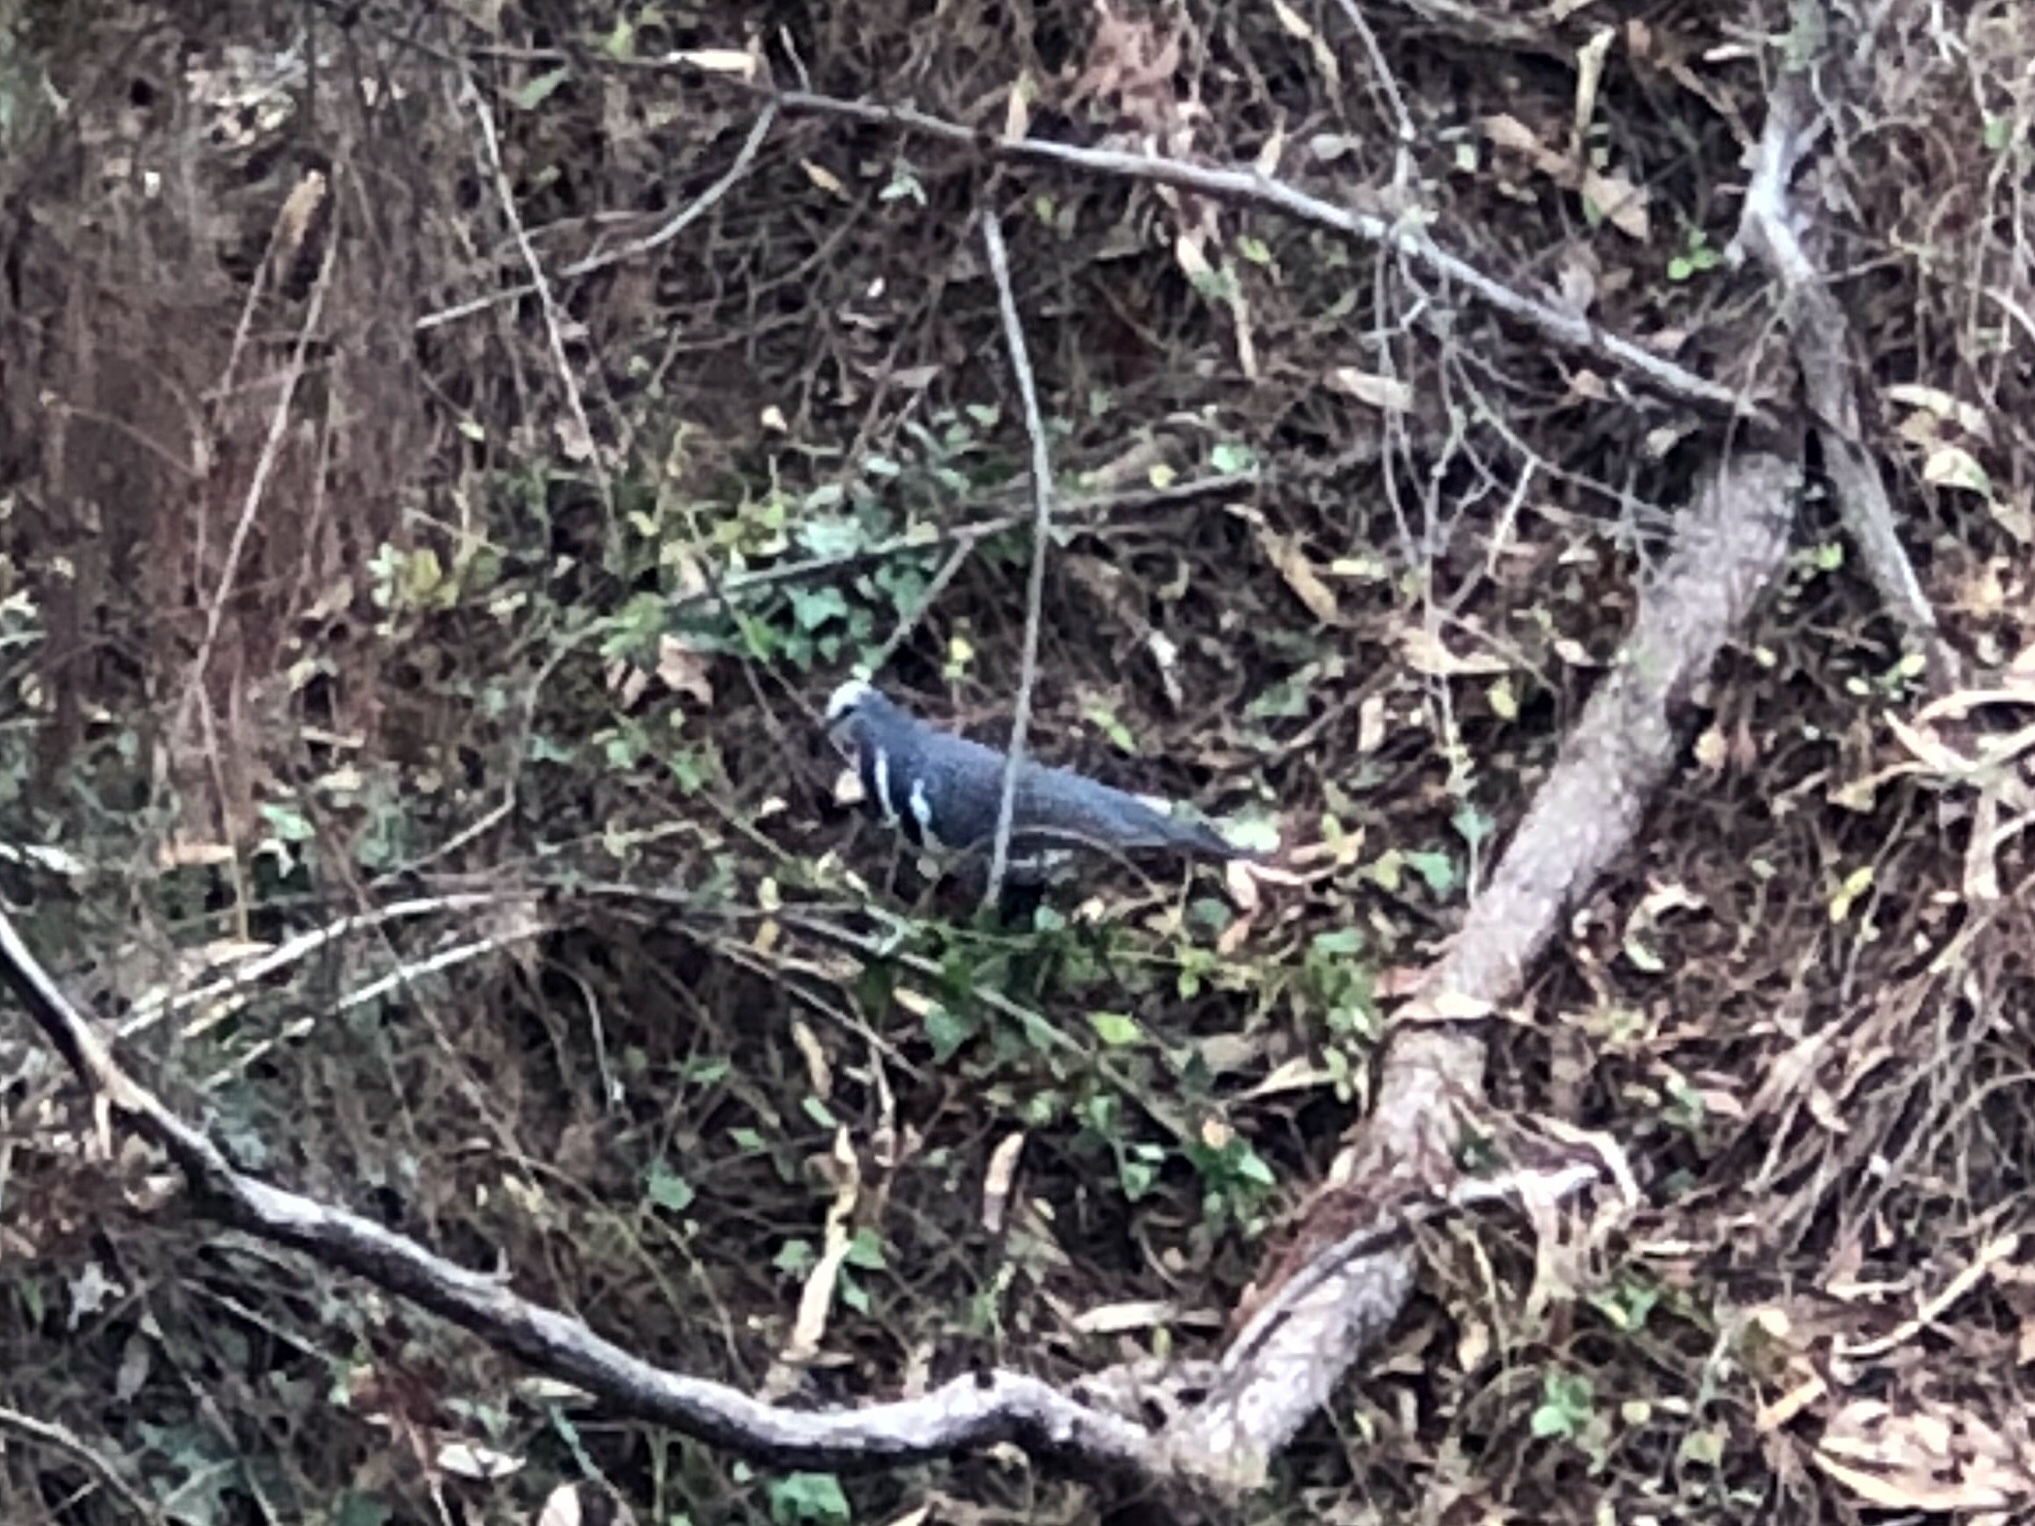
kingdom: Animalia
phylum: Chordata
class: Aves
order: Columbiformes
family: Columbidae
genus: Leucosarcia
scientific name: Leucosarcia melanoleuca
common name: Wonga pigeon
